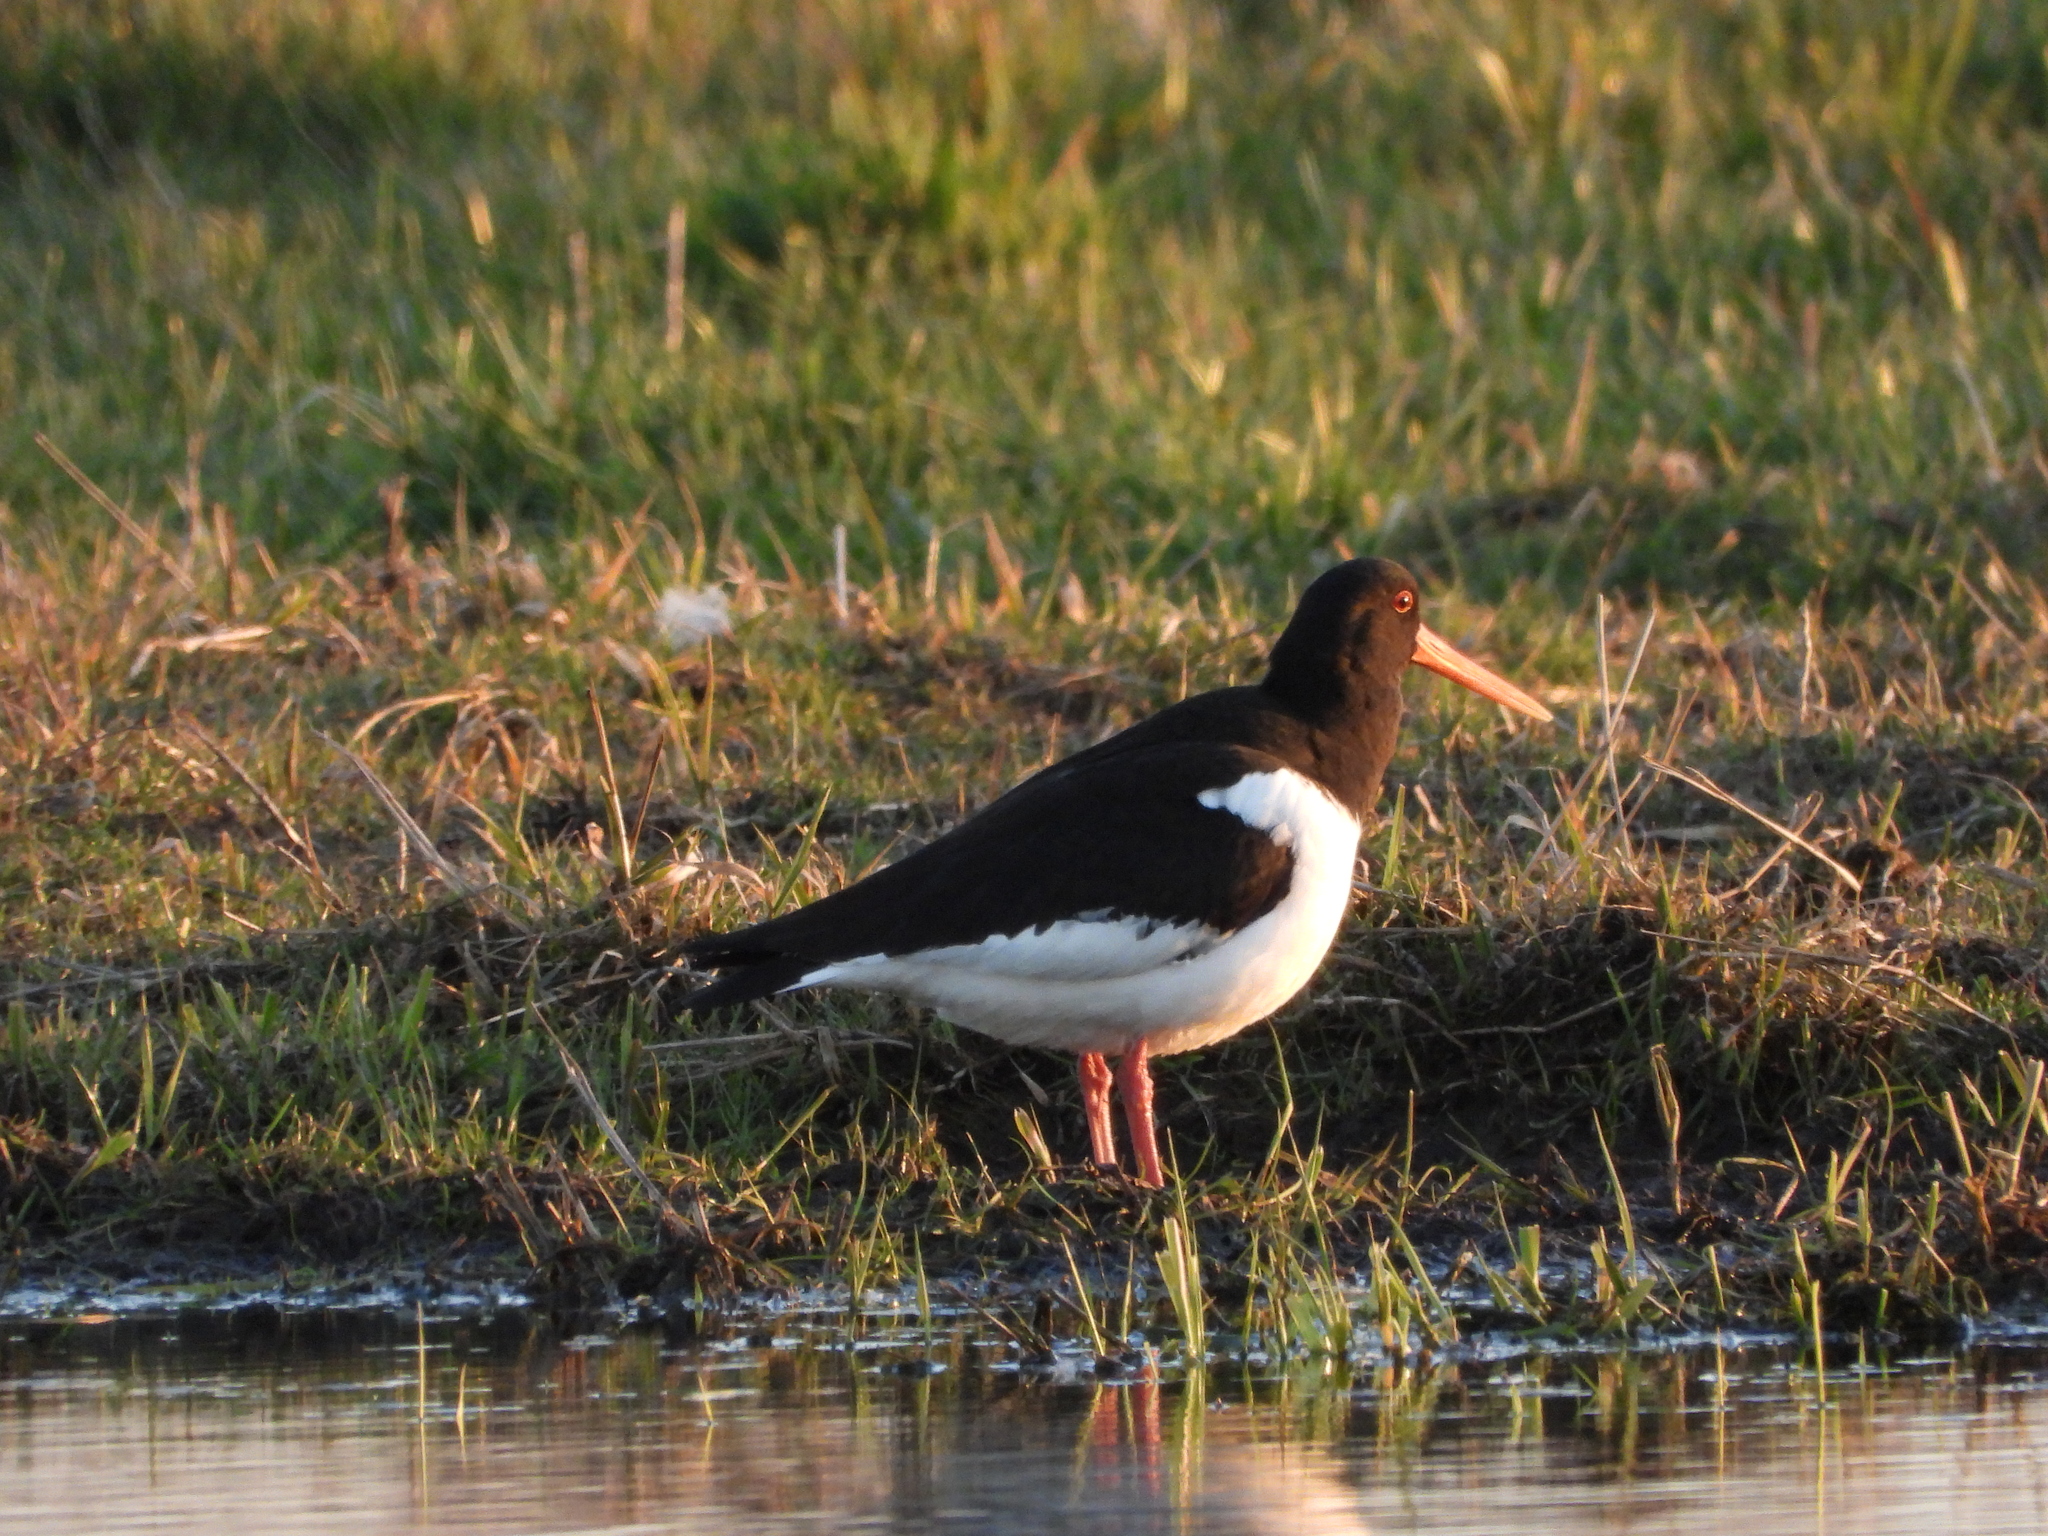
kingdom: Animalia
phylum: Chordata
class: Aves
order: Charadriiformes
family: Haematopodidae
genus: Haematopus
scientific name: Haematopus ostralegus
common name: Eurasian oystercatcher
